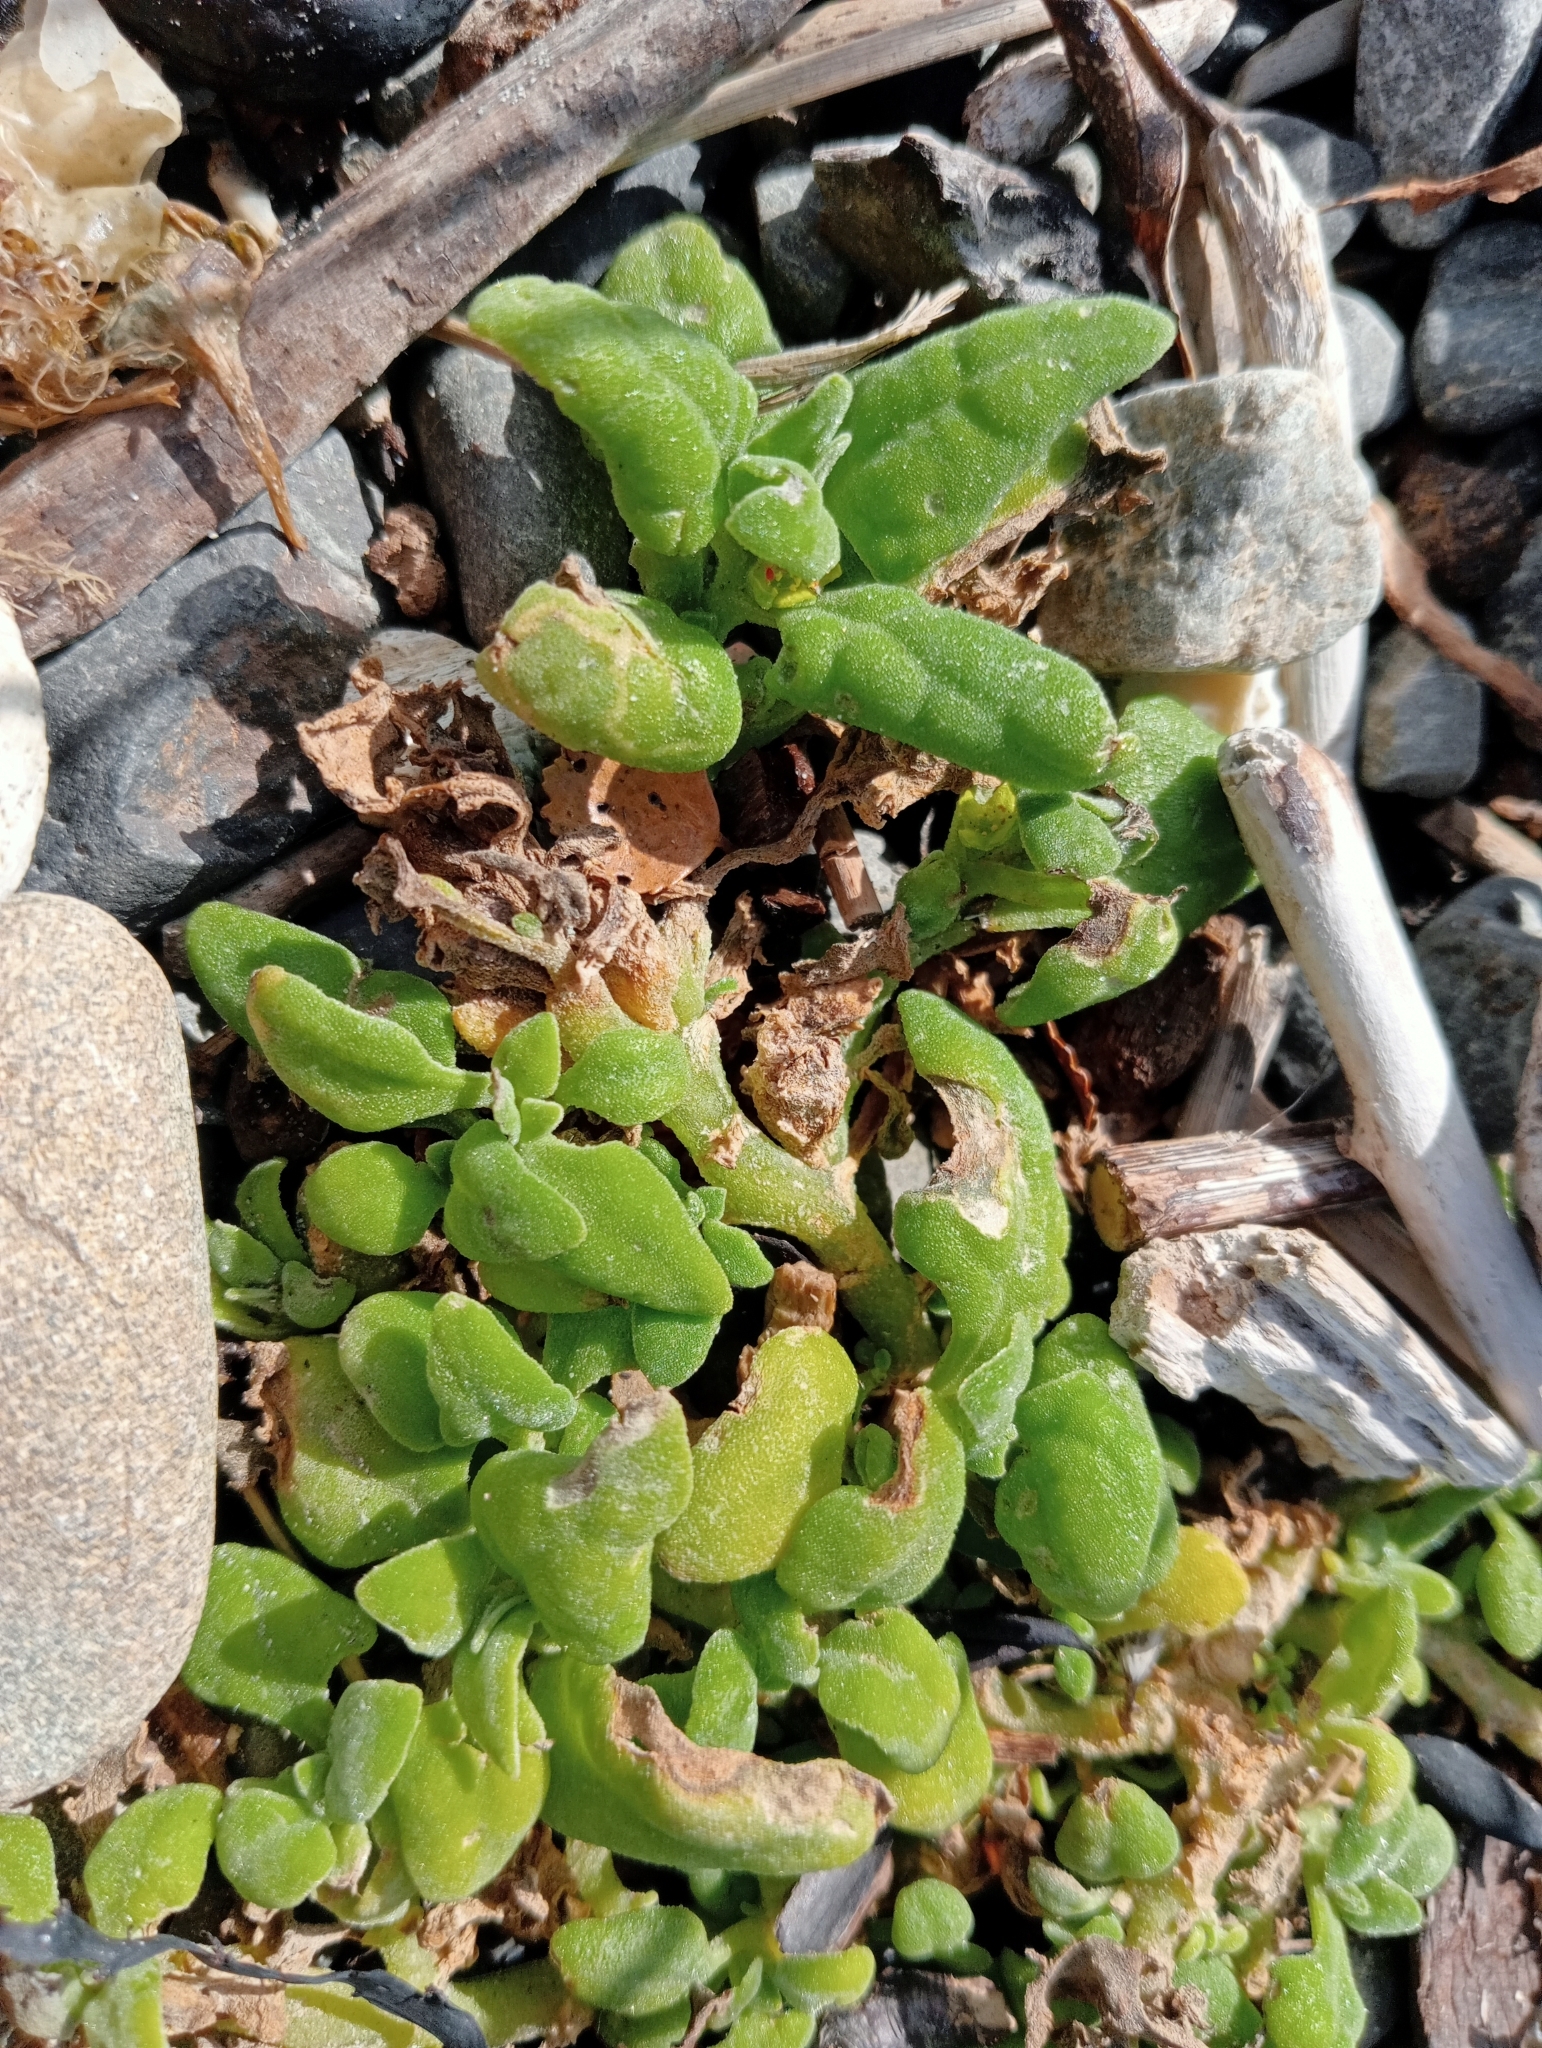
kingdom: Plantae
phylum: Tracheophyta
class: Magnoliopsida
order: Caryophyllales
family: Aizoaceae
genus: Tetragonia
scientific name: Tetragonia tetragonoides
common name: New zealand-spinach
